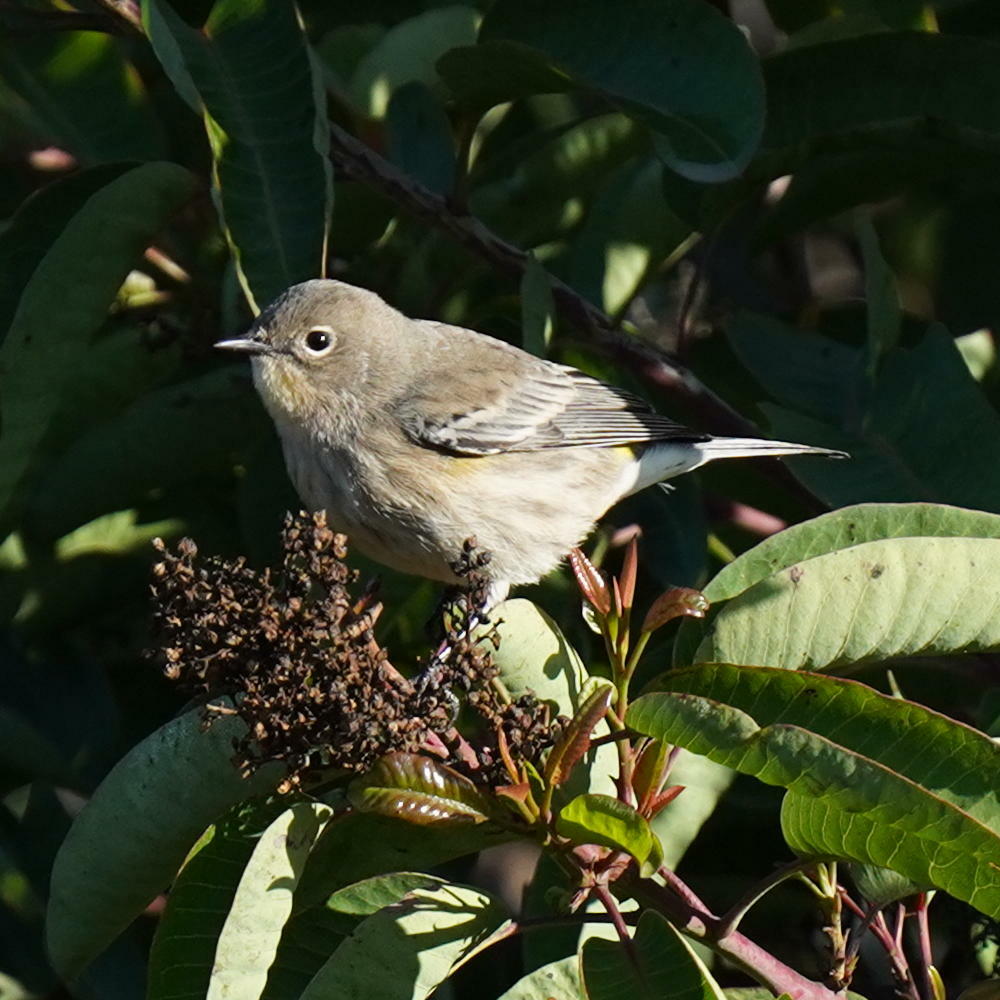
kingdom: Animalia
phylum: Chordata
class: Aves
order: Passeriformes
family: Parulidae
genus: Setophaga
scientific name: Setophaga coronata
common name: Myrtle warbler
